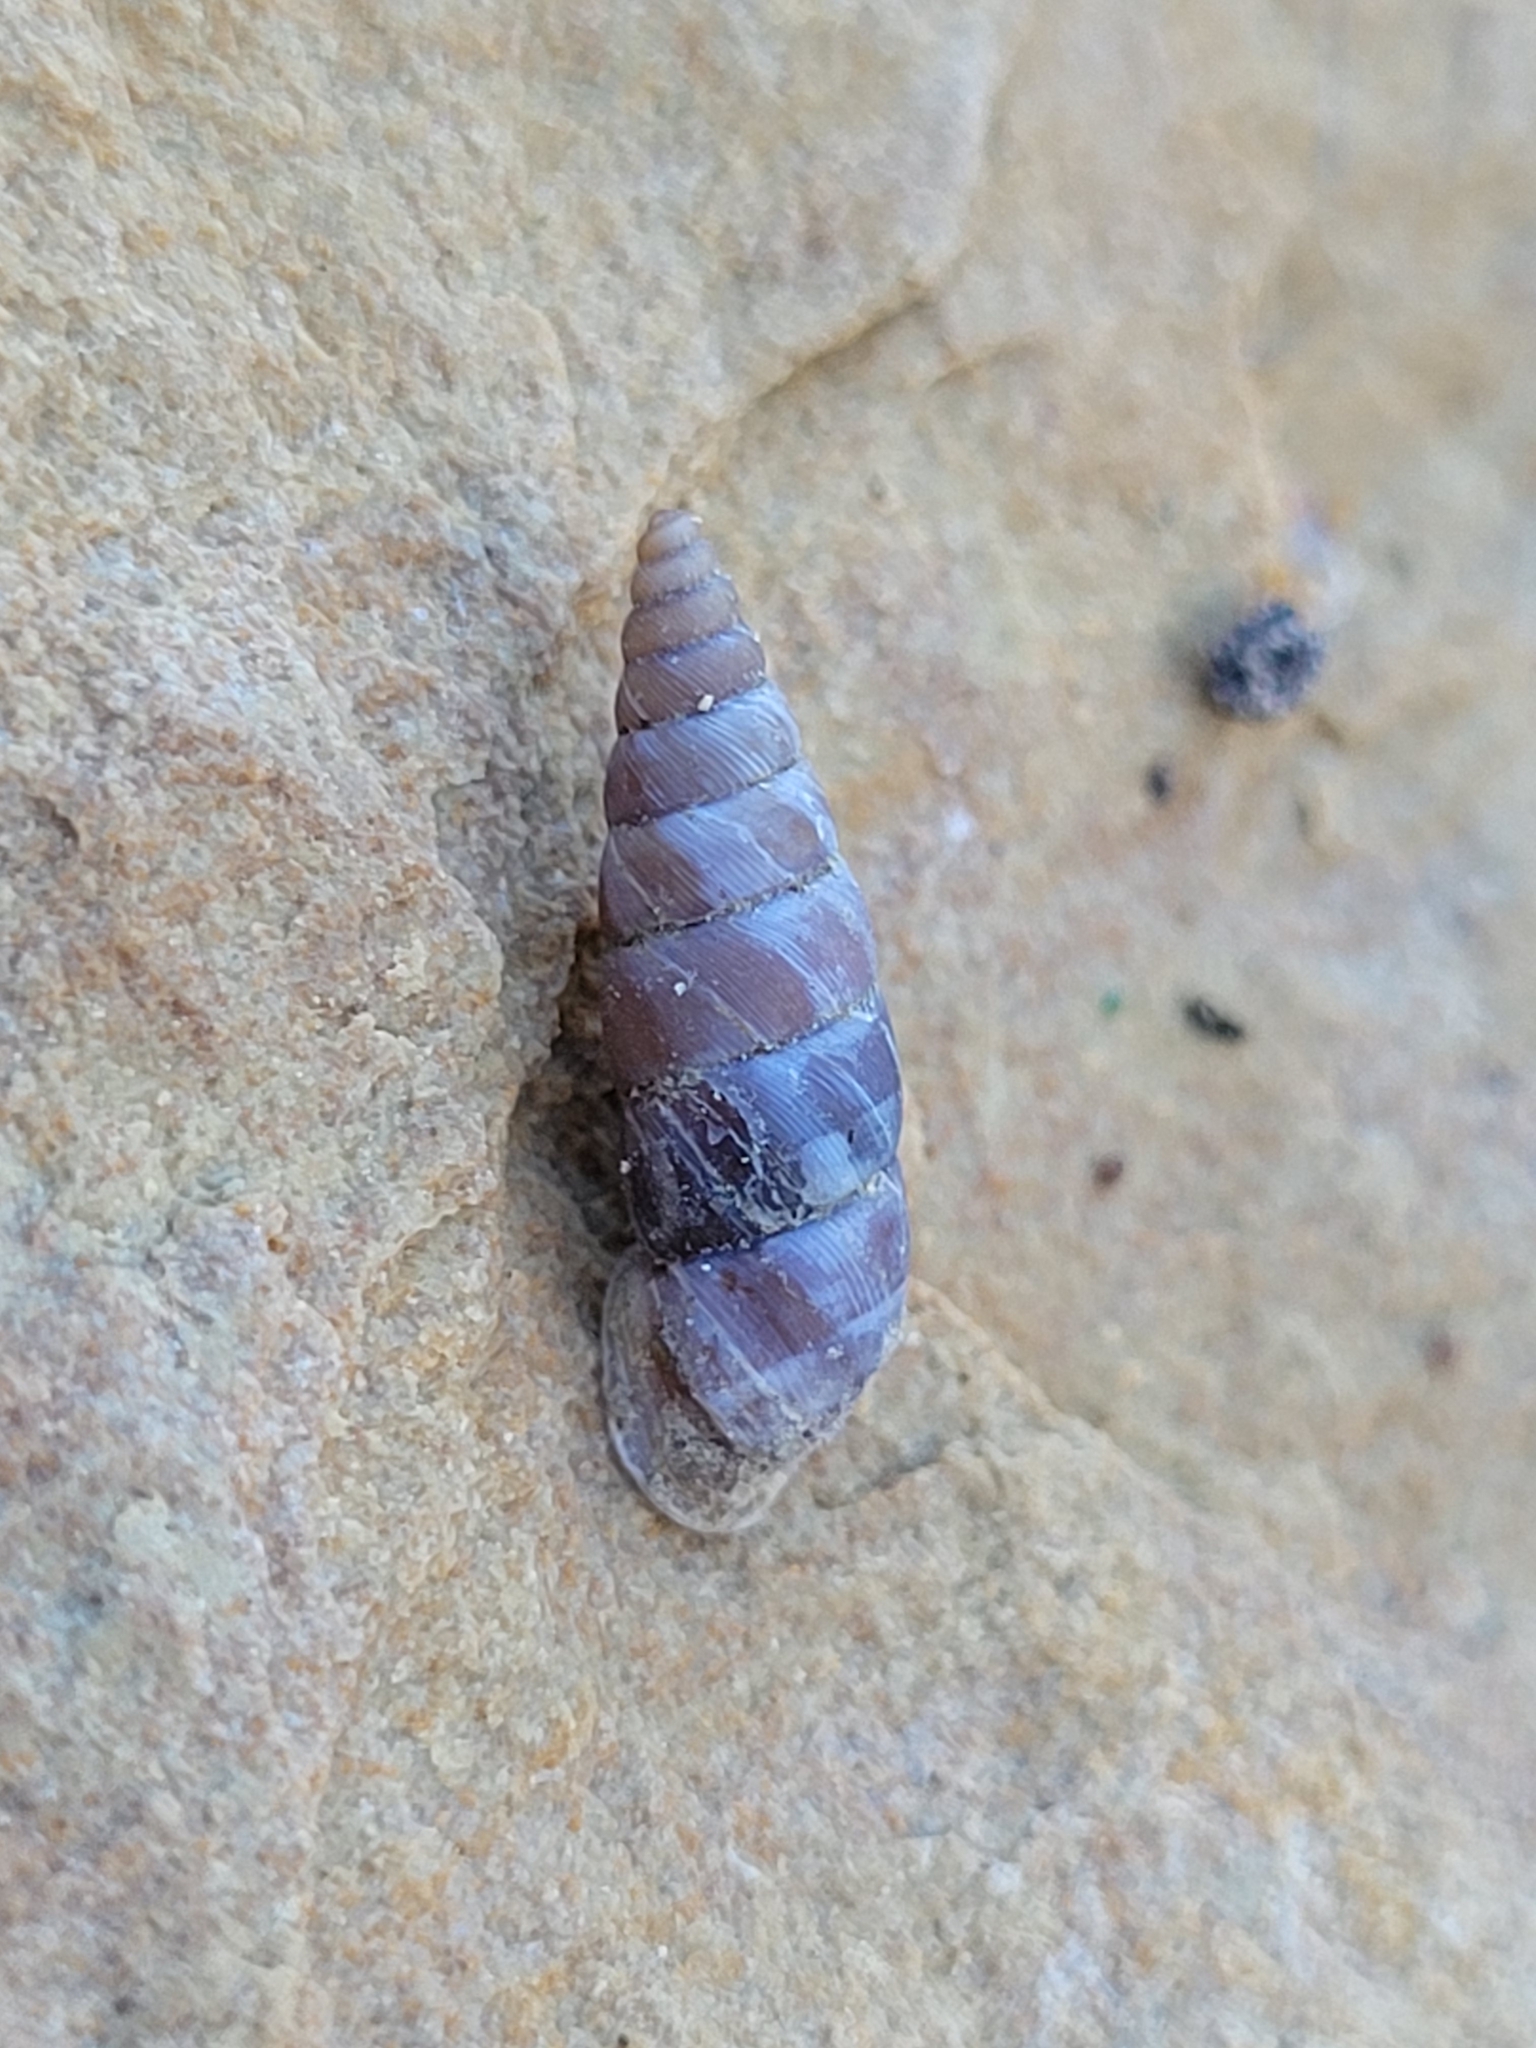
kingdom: Animalia
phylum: Mollusca
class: Gastropoda
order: Stylommatophora
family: Chondrinidae
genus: Solatopupa
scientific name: Solatopupa similis
